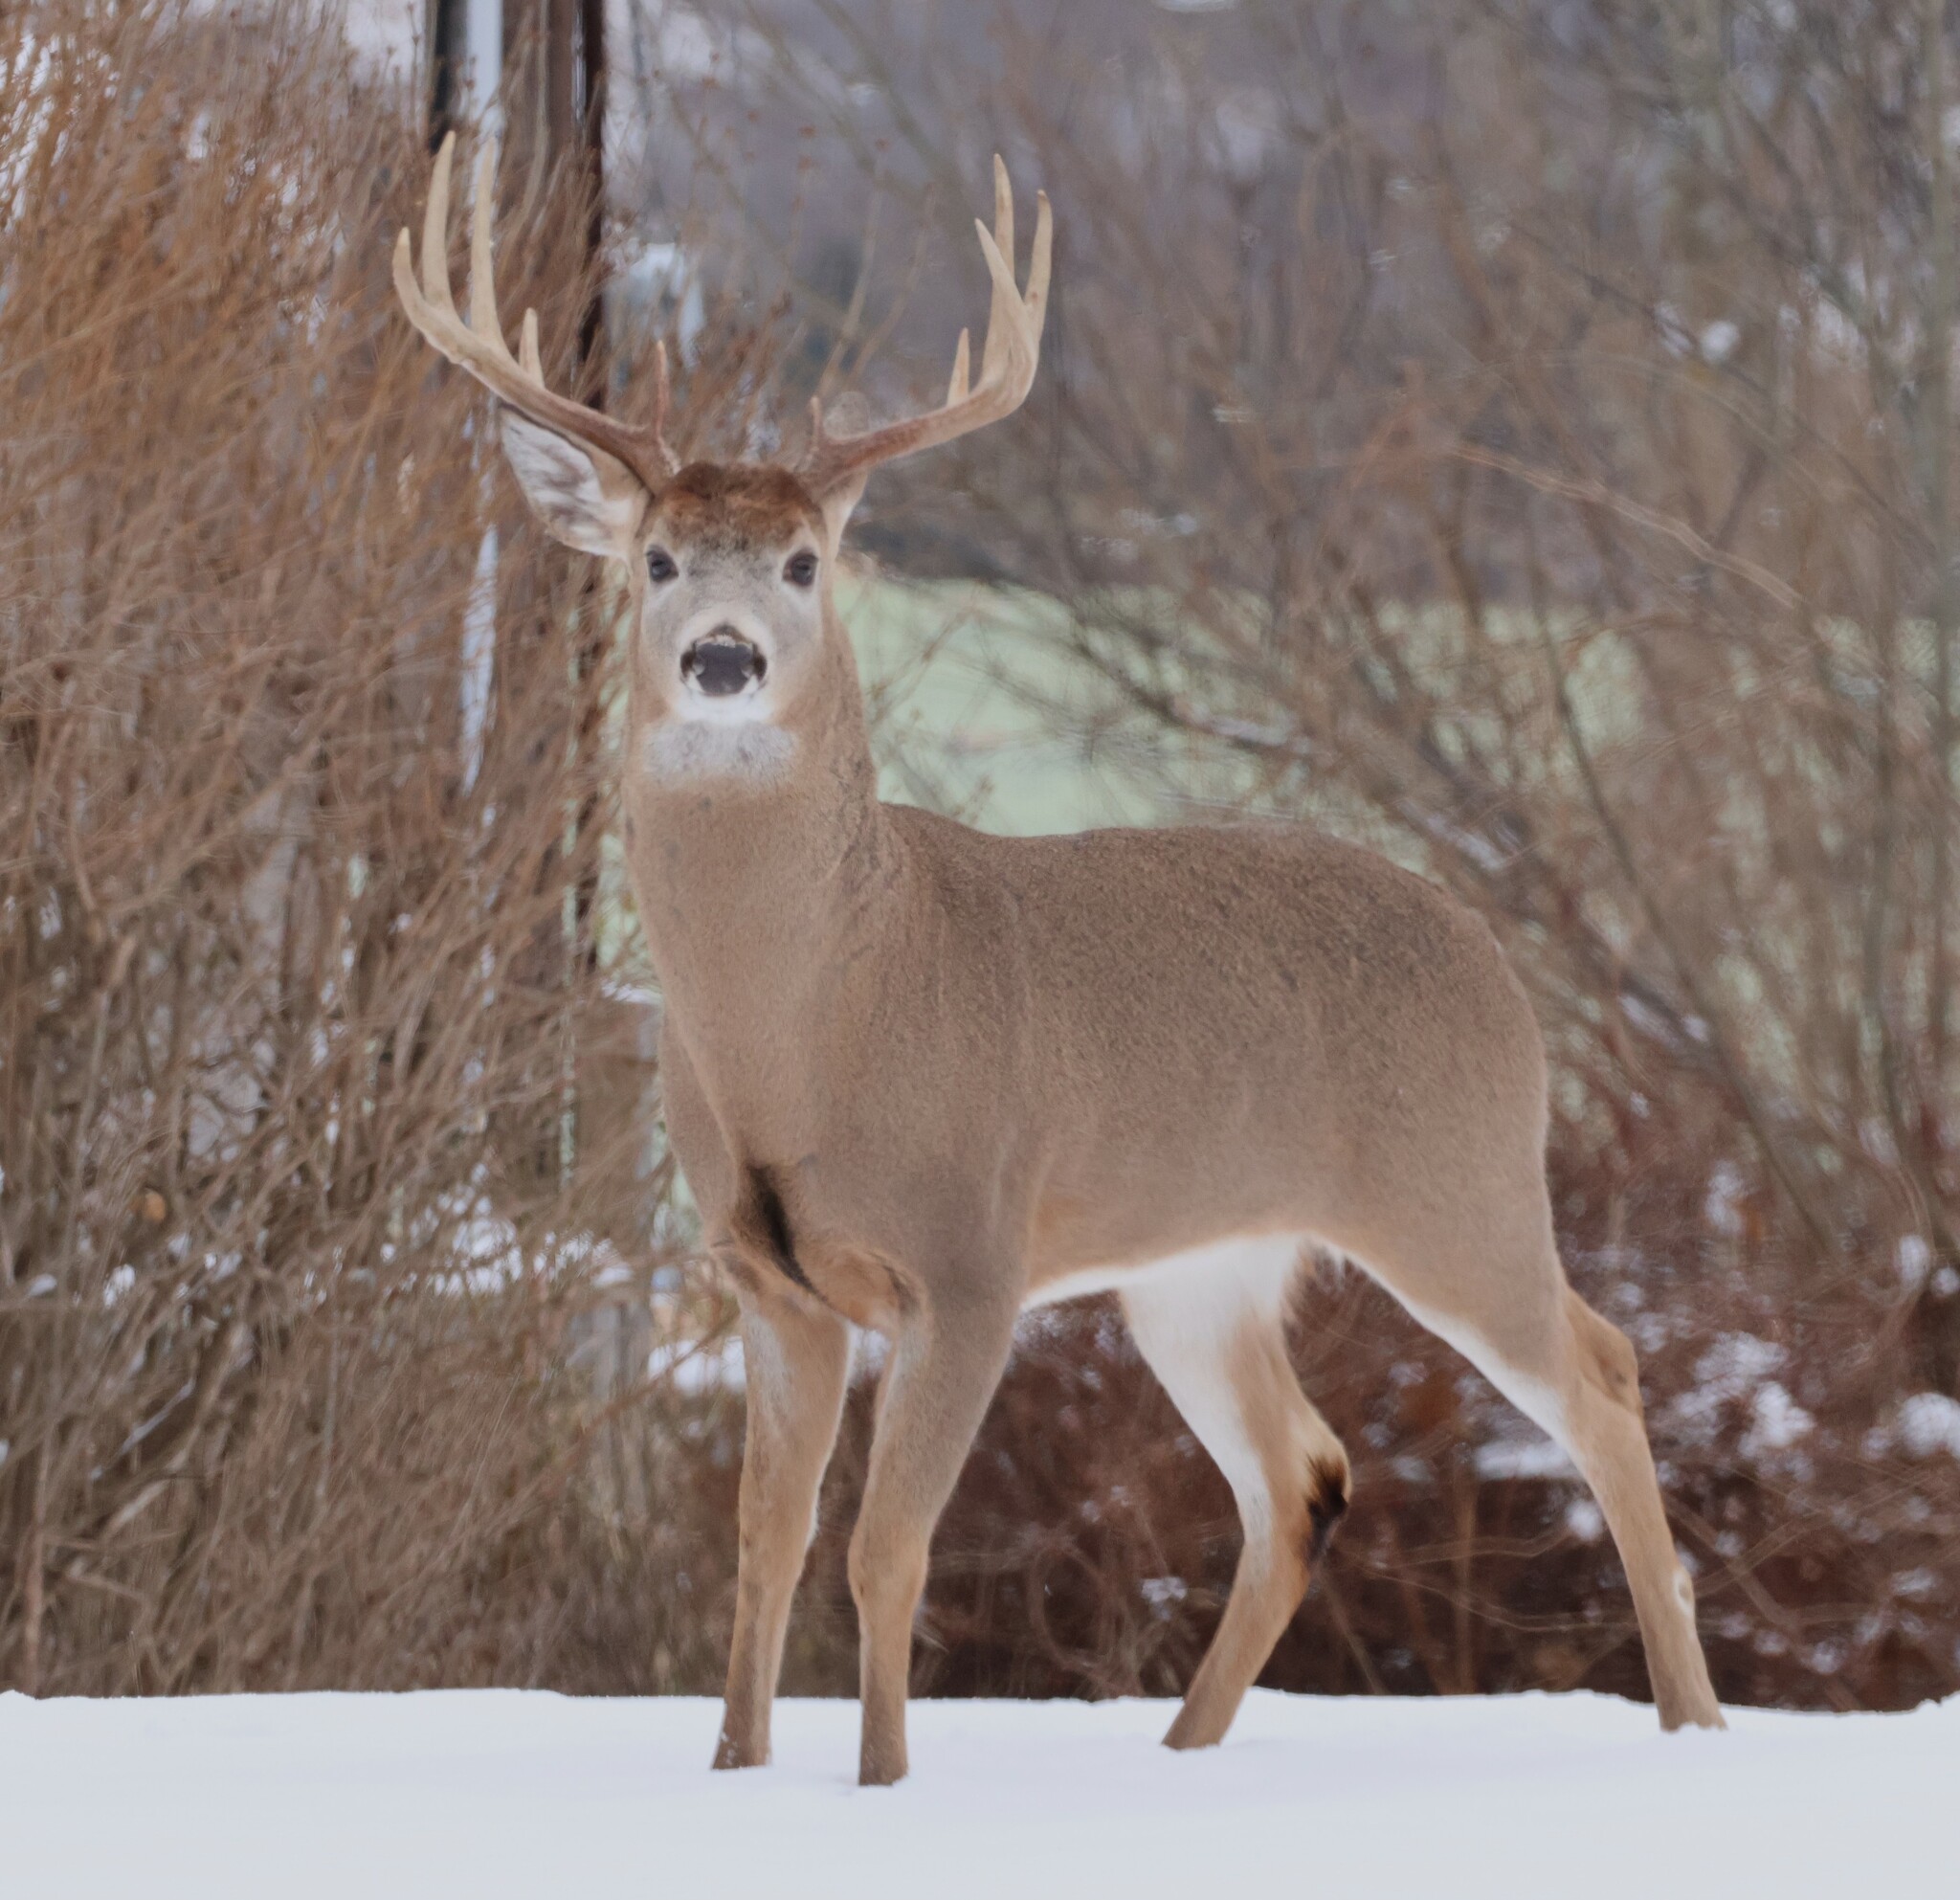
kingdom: Animalia
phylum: Chordata
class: Mammalia
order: Artiodactyla
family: Cervidae
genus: Odocoileus
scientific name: Odocoileus virginianus
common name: White-tailed deer
